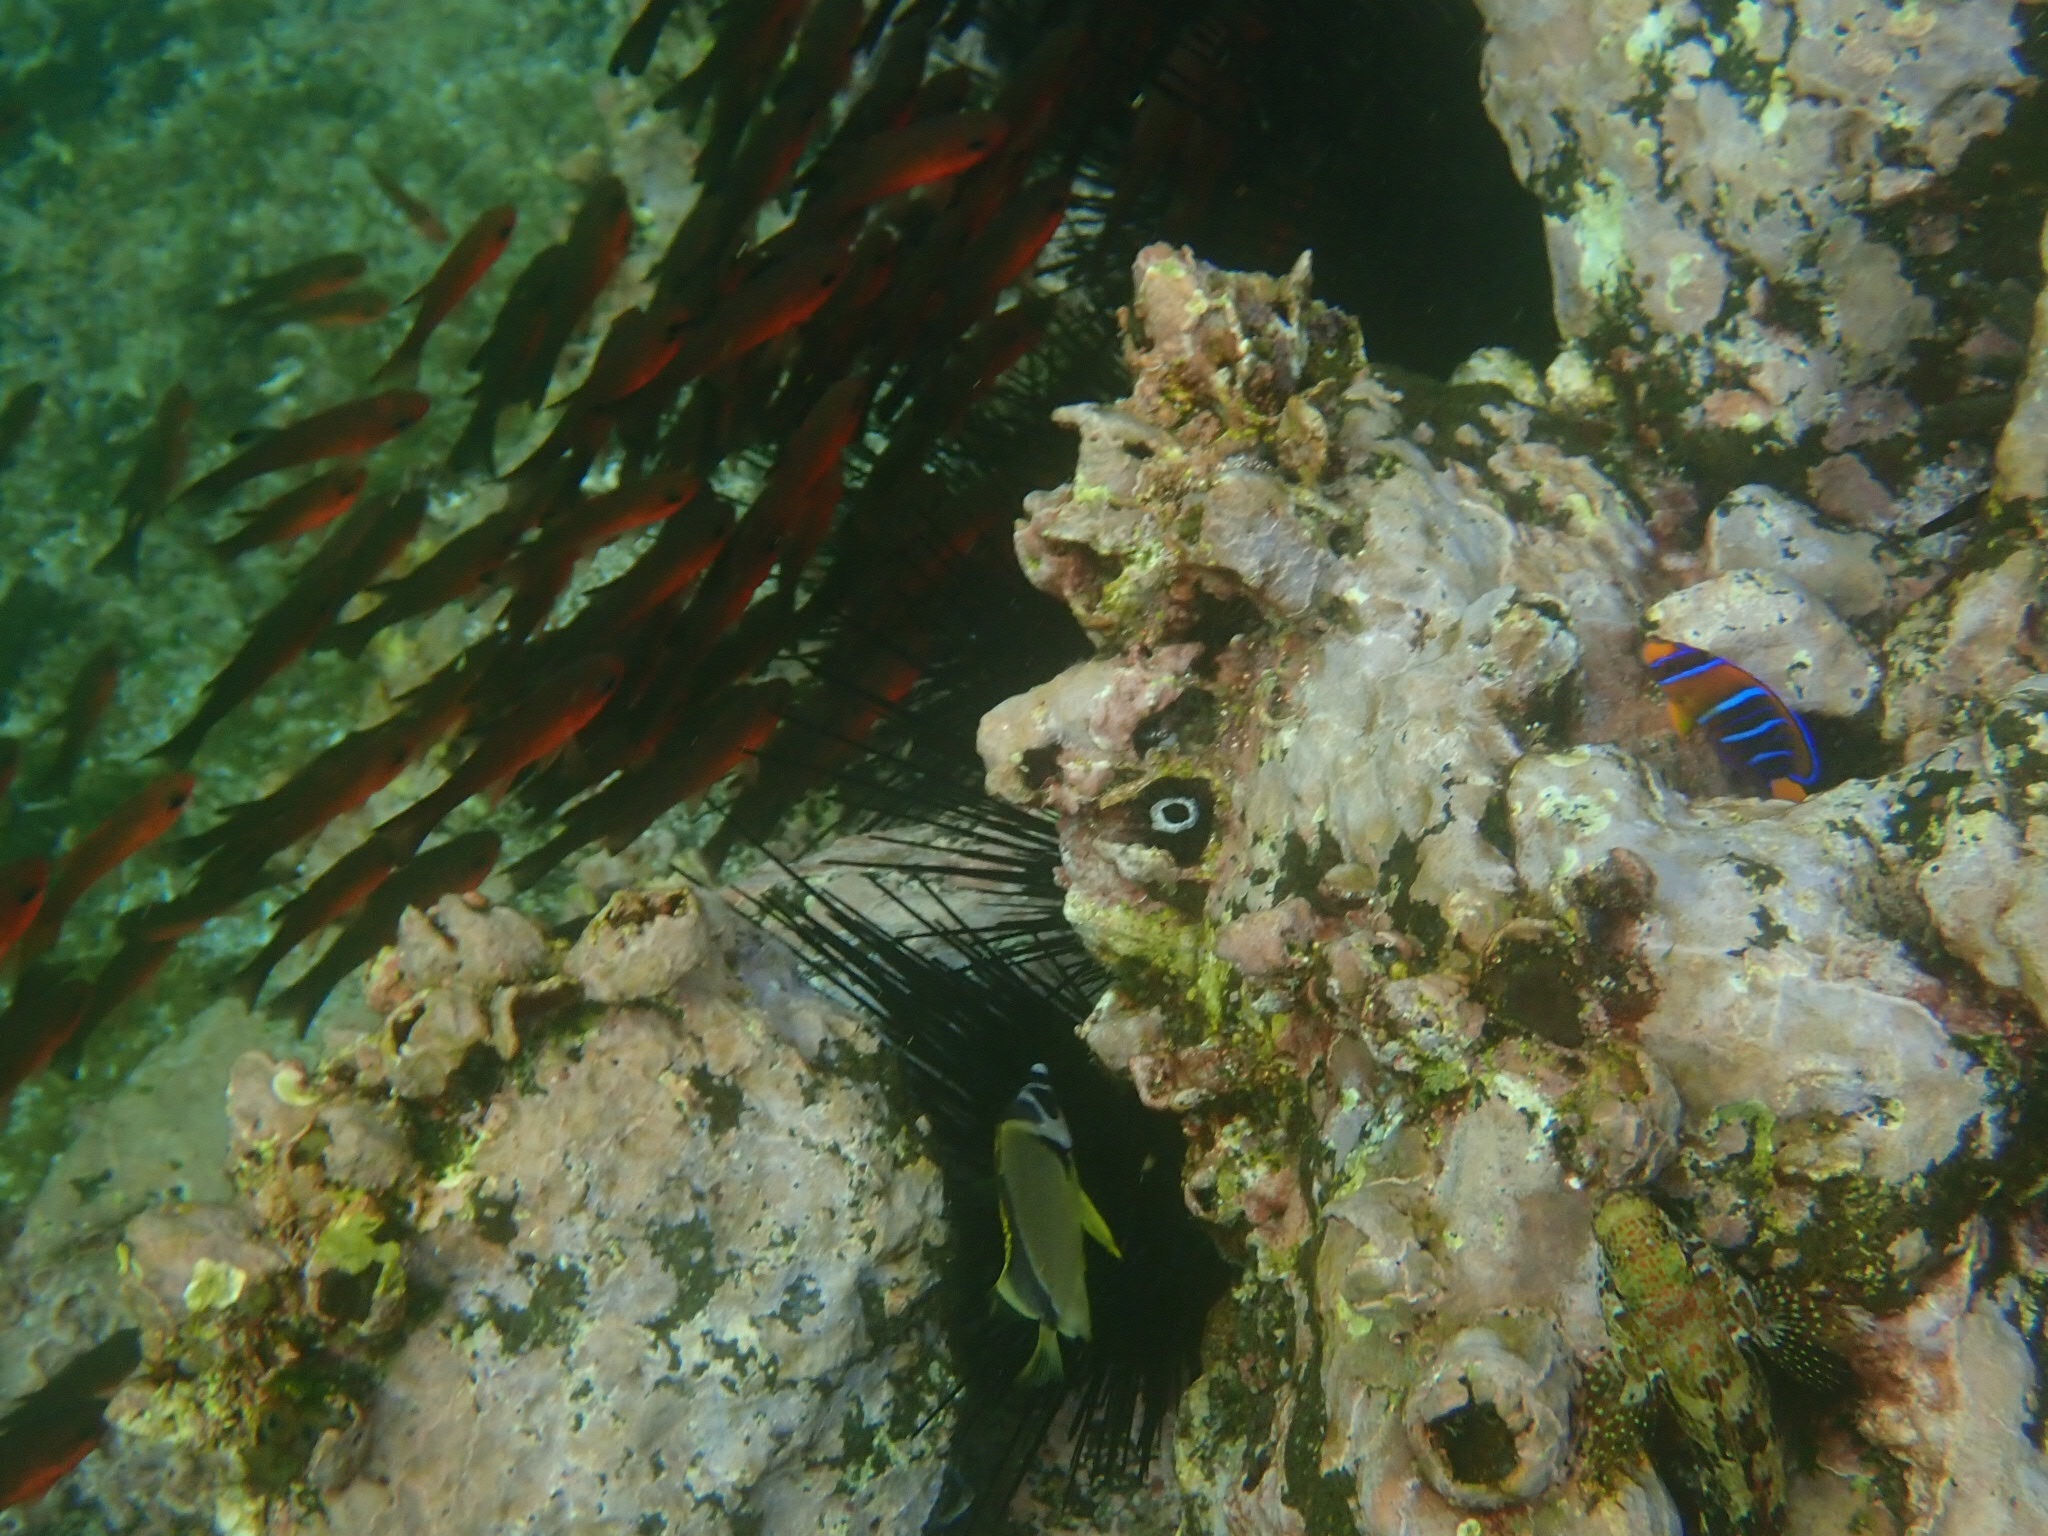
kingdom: Animalia
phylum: Chordata
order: Perciformes
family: Pomacanthidae
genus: Holacanthus
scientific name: Holacanthus passer
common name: King angelfish
